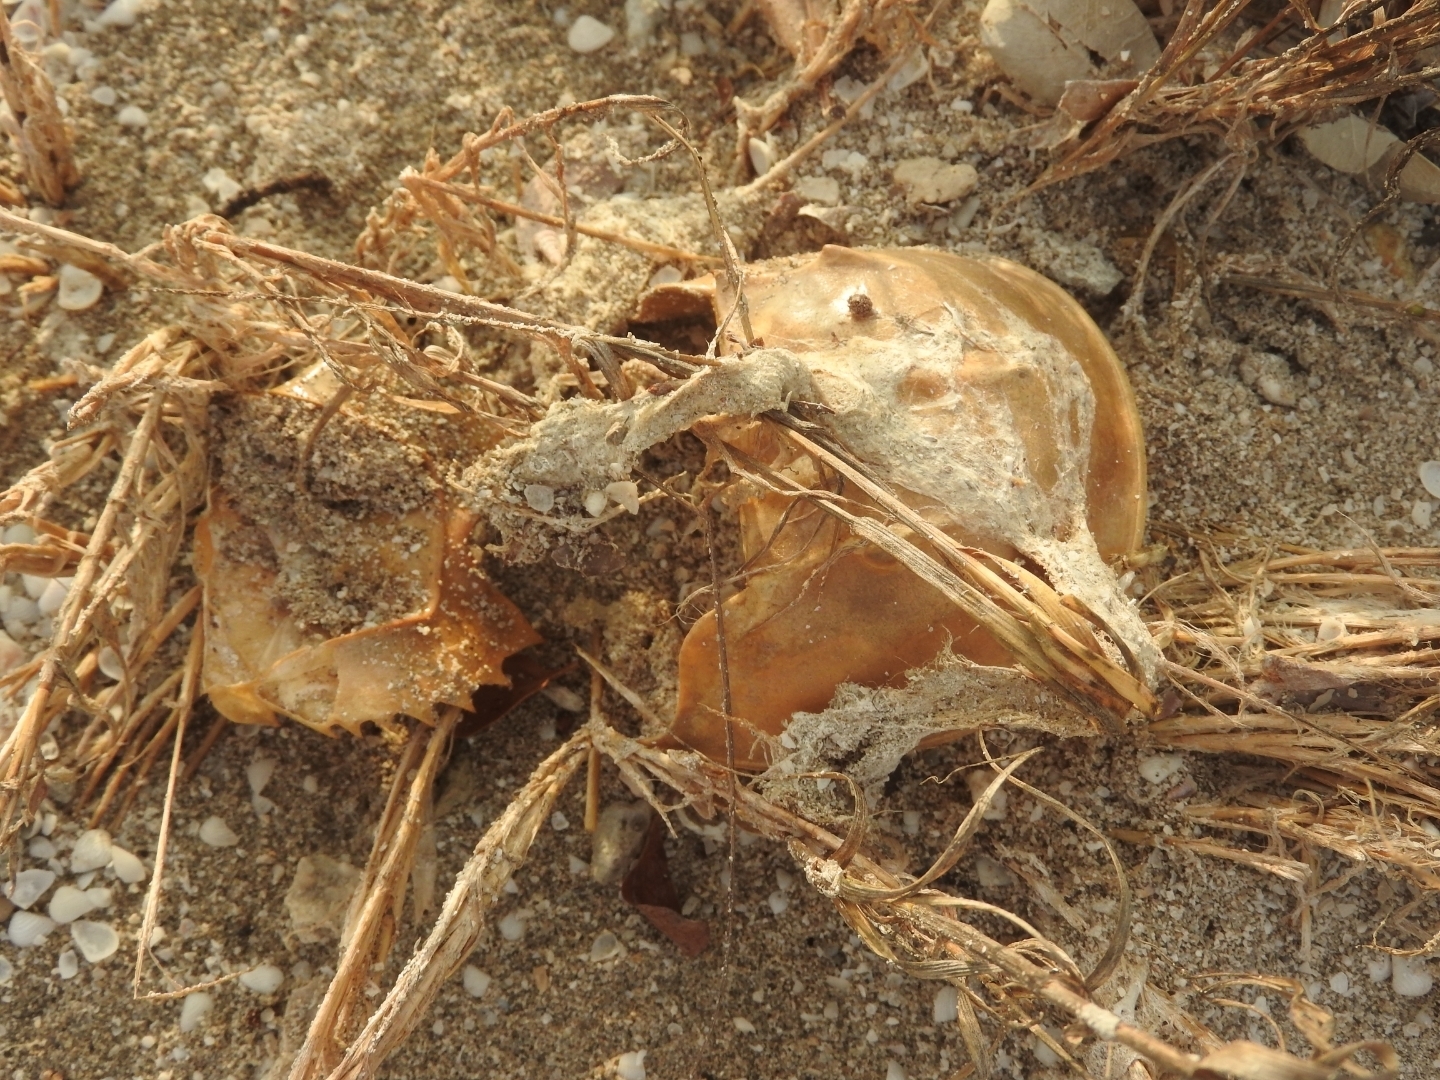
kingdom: Animalia
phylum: Arthropoda
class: Merostomata
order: Xiphosurida
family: Limulidae
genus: Limulus
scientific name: Limulus polyphemus
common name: Horseshoe crab
